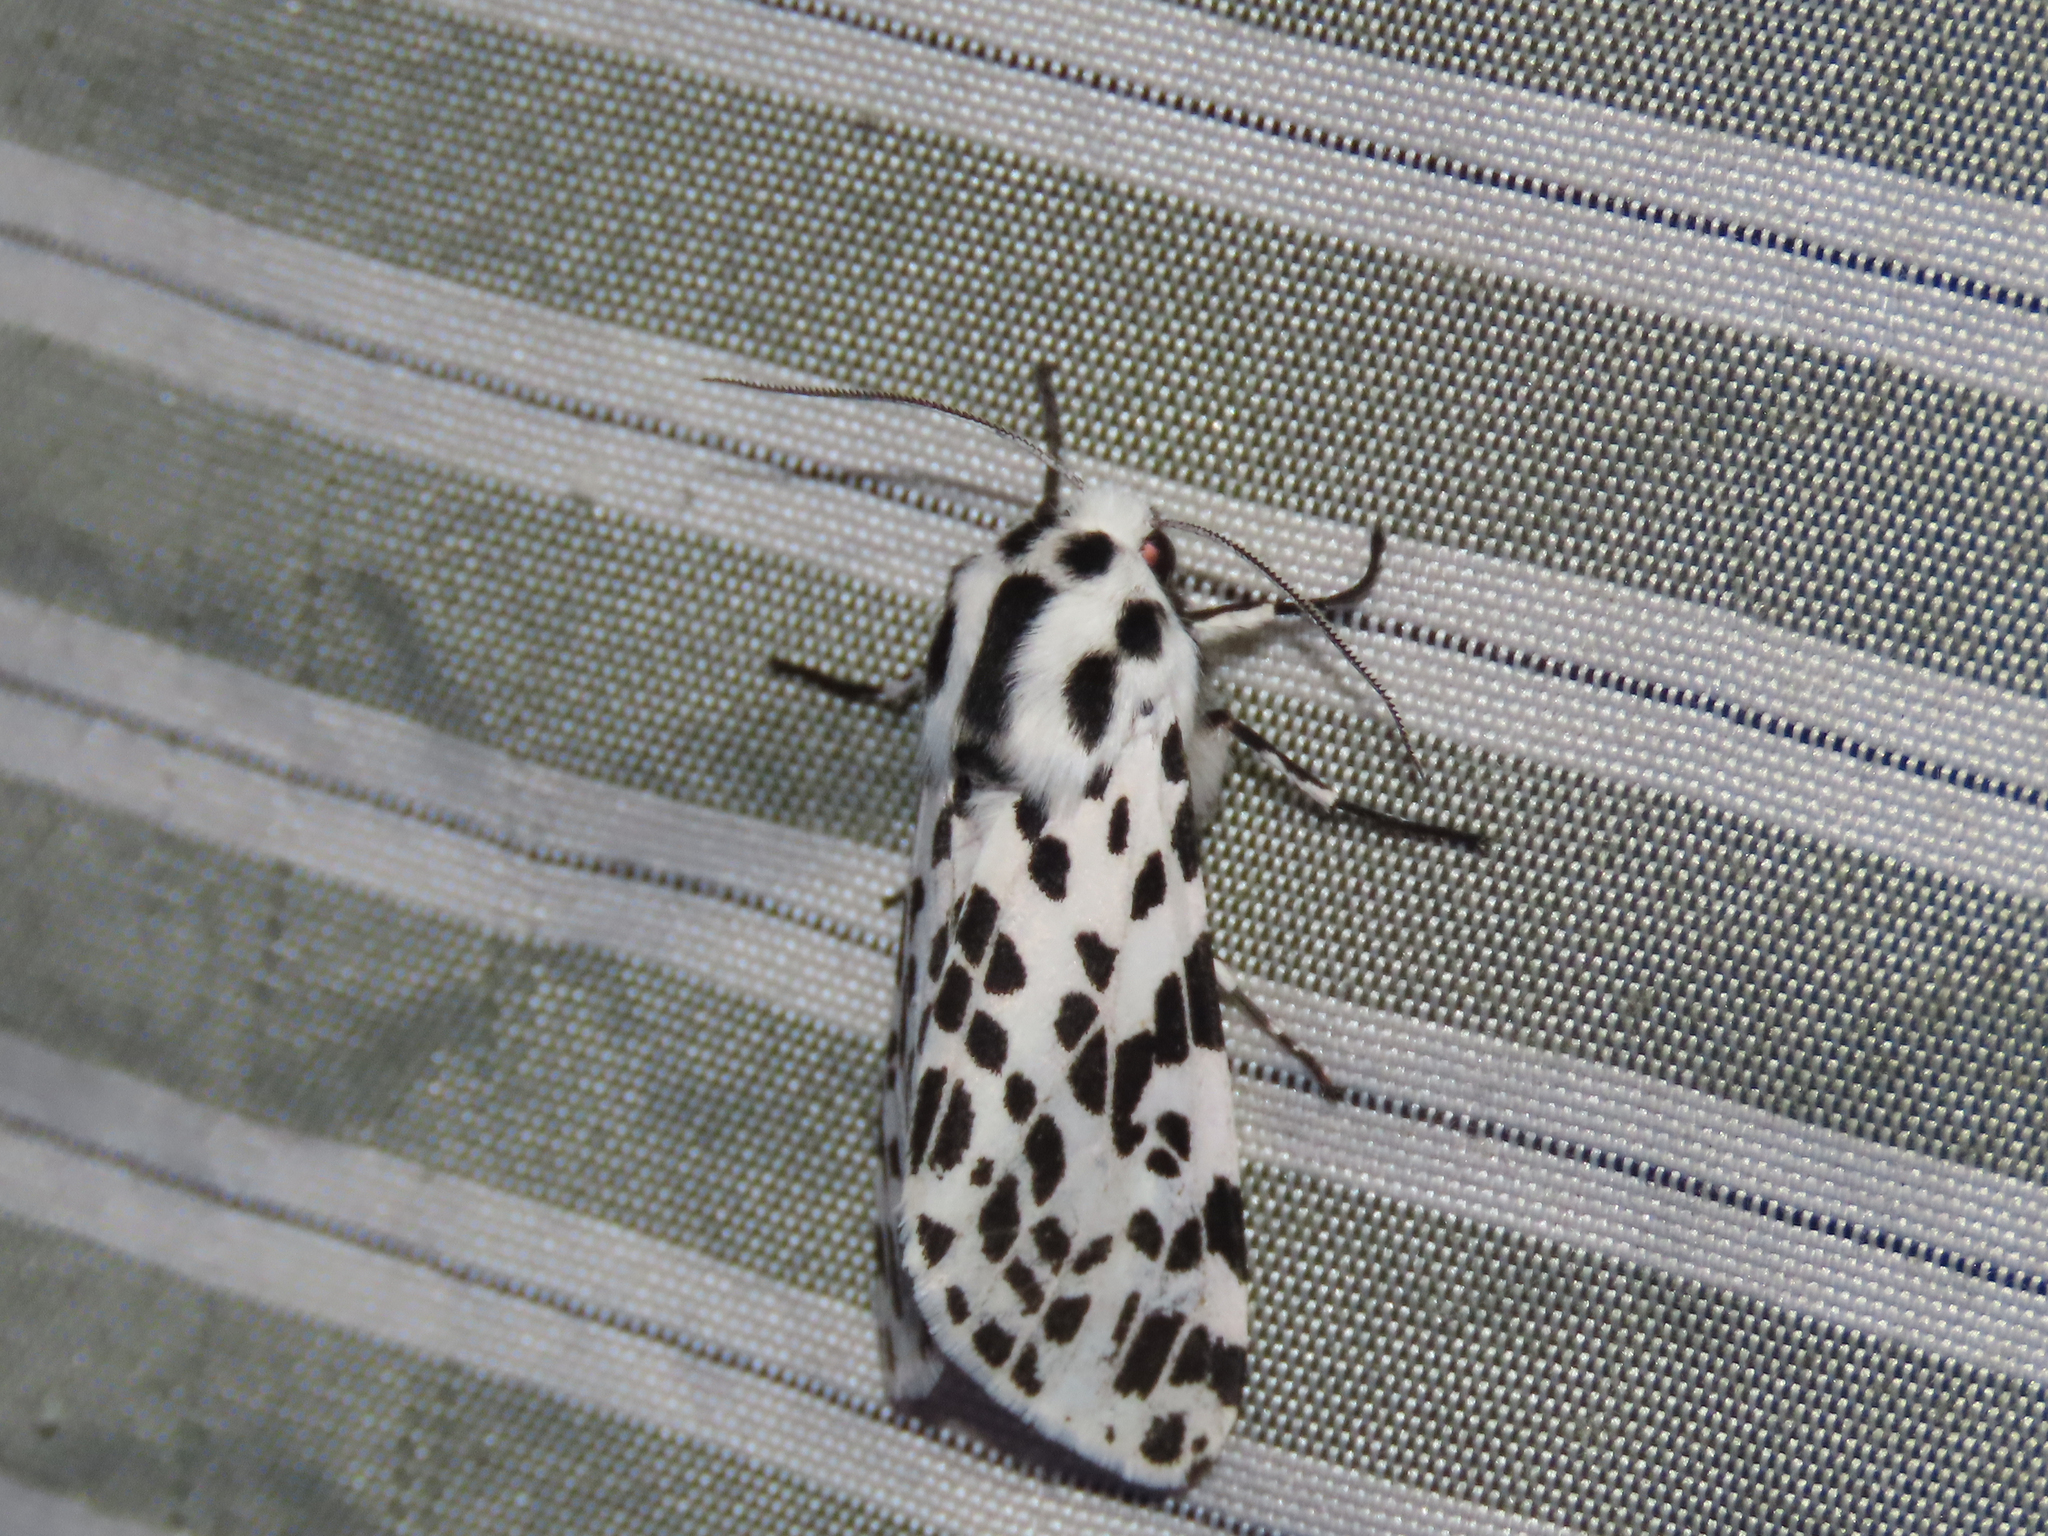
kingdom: Animalia
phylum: Arthropoda
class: Insecta
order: Lepidoptera
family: Erebidae
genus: Hypercompe
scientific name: Hypercompe permaculata
